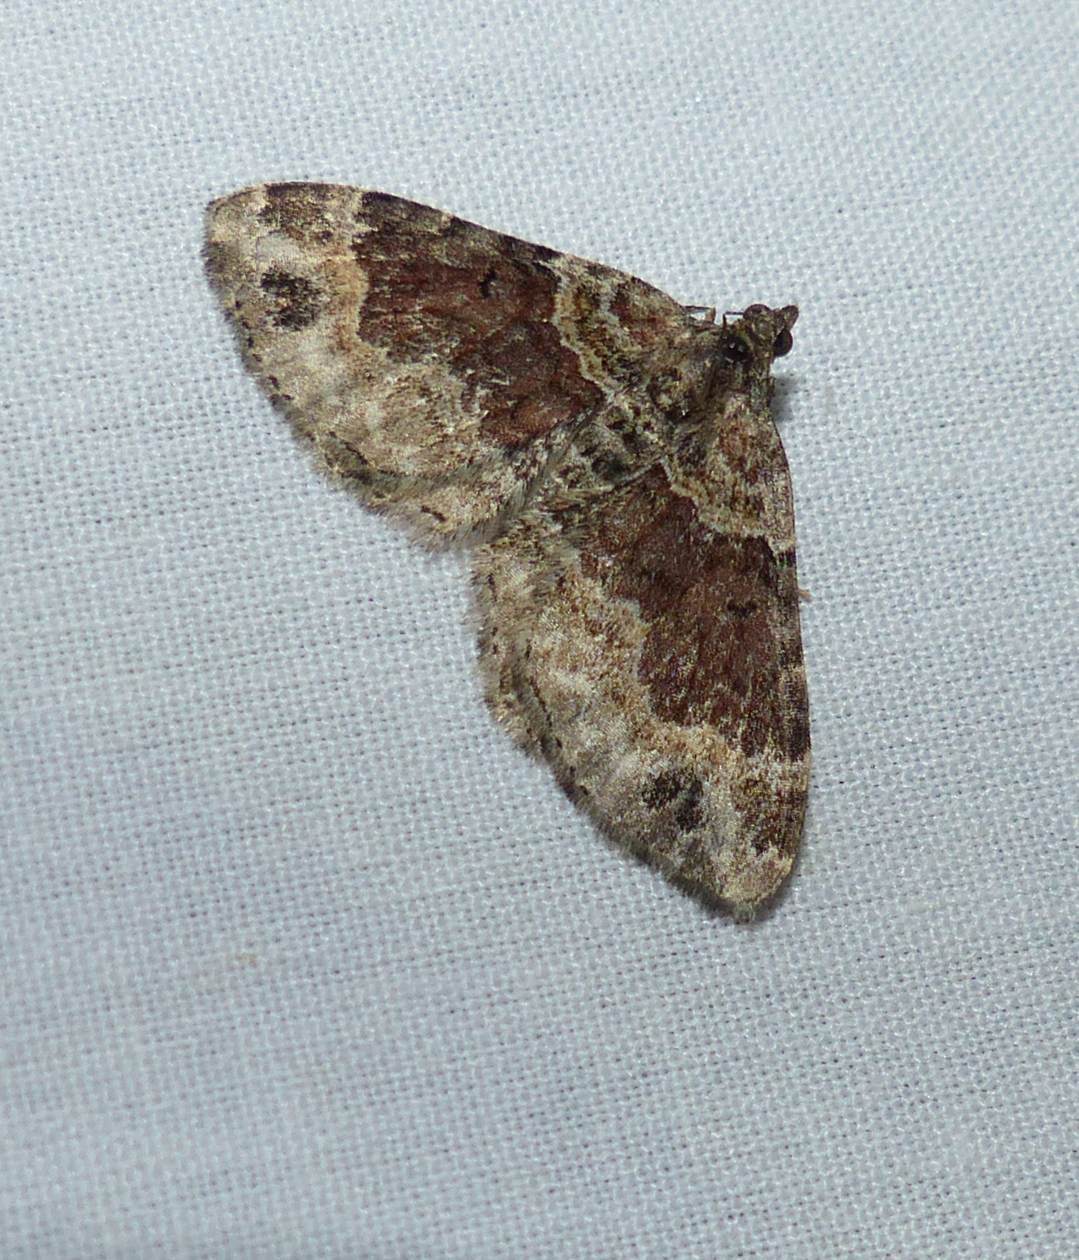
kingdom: Animalia
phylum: Arthropoda
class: Insecta
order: Lepidoptera
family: Geometridae
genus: Xanthorhoe
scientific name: Xanthorhoe ferrugata
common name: Dark-barred twin-spot carpet
